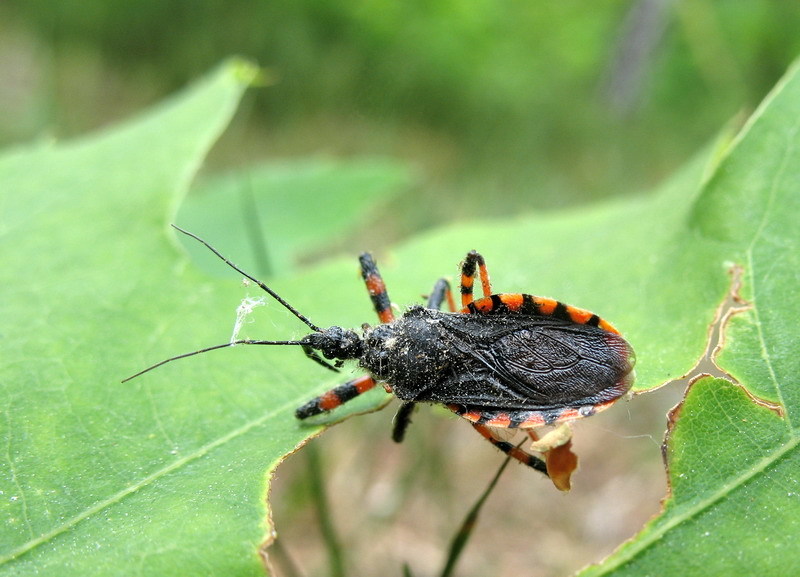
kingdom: Animalia
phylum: Arthropoda
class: Insecta
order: Hemiptera
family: Reduviidae
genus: Rhynocoris
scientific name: Rhynocoris annulatus
